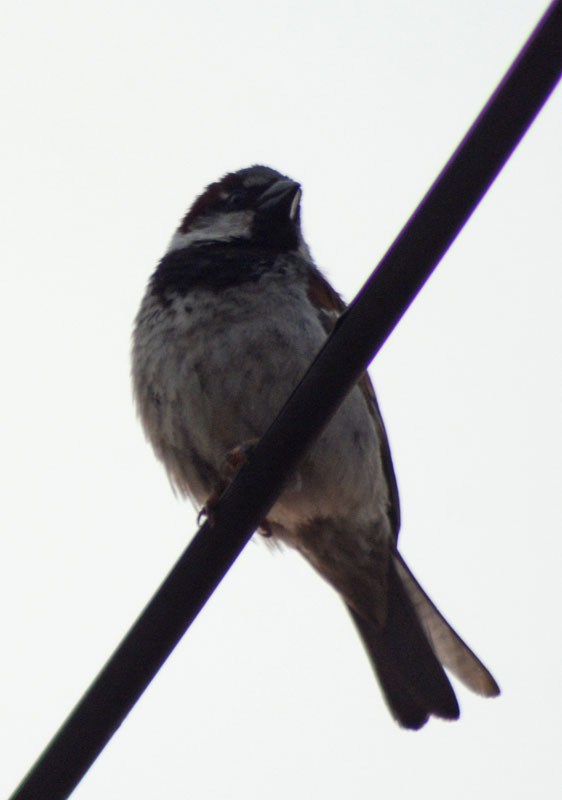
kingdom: Animalia
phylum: Chordata
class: Aves
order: Passeriformes
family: Passeridae
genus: Passer
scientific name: Passer domesticus
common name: House sparrow
